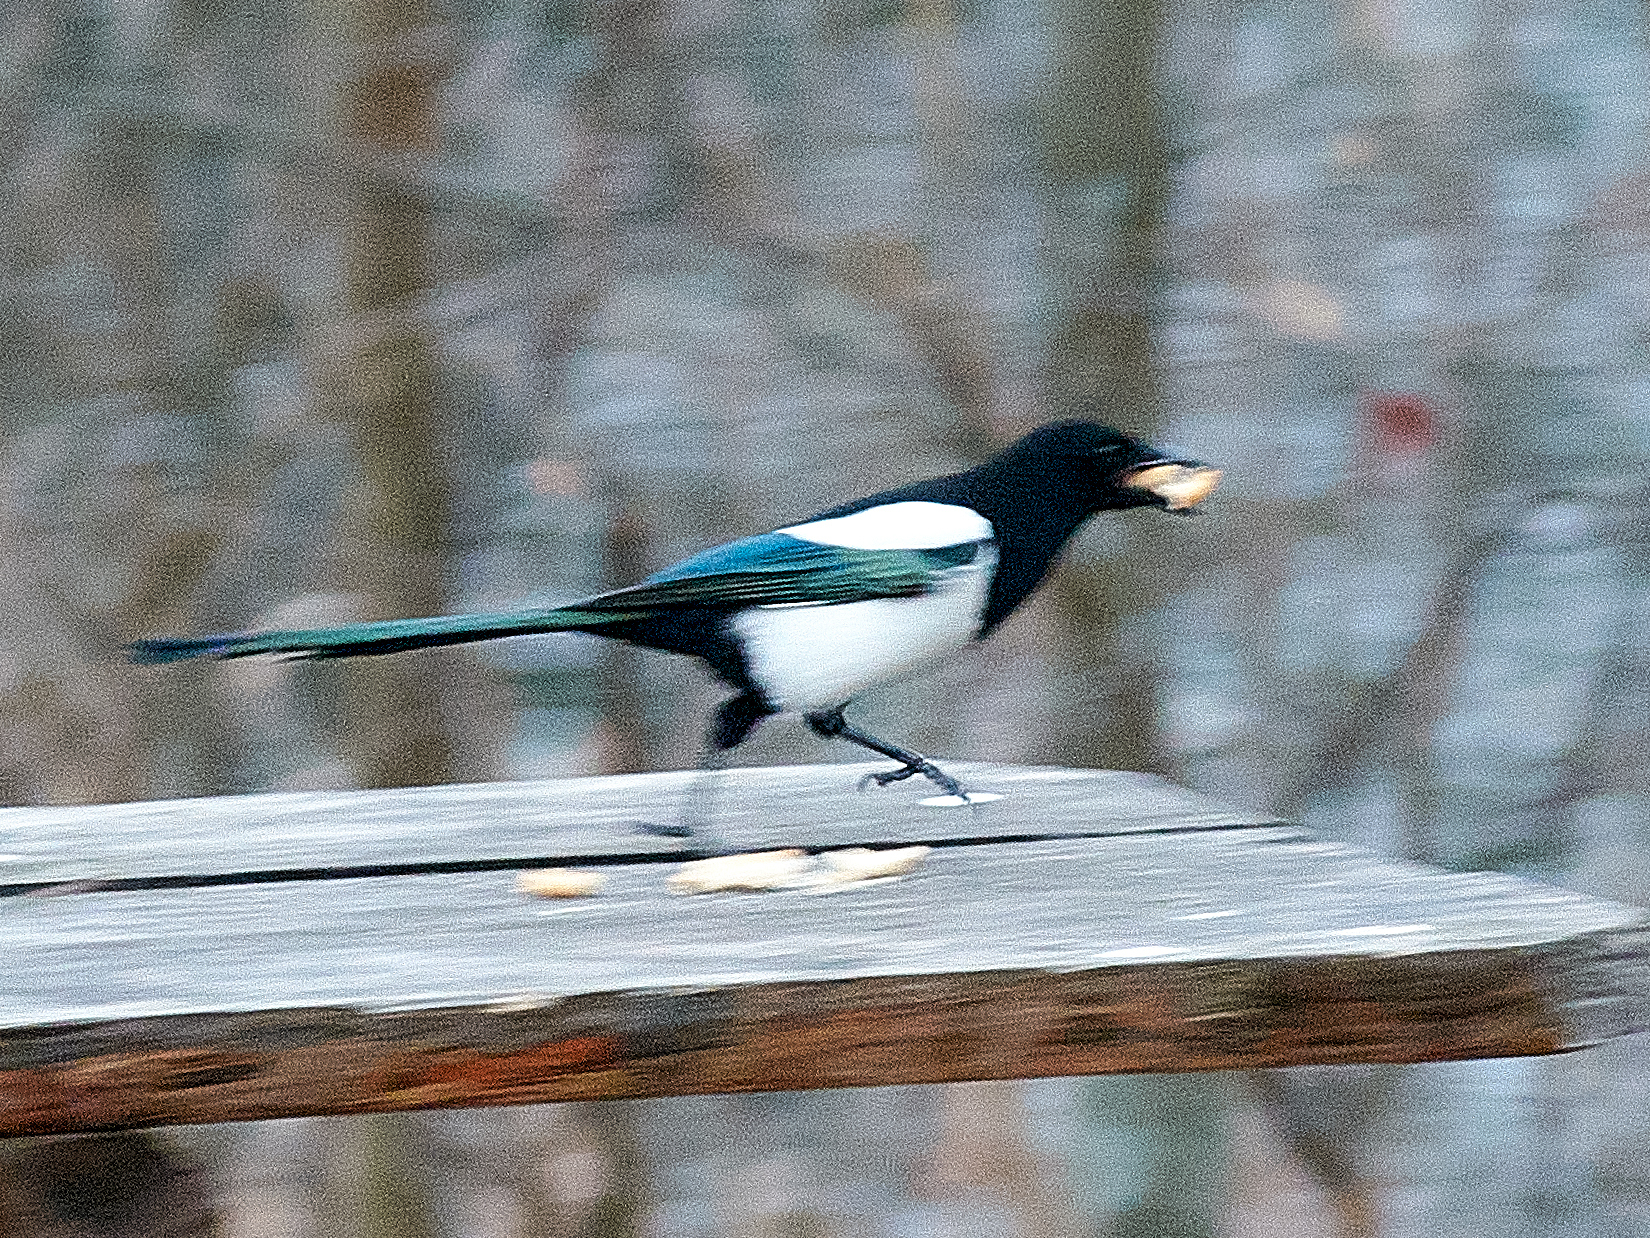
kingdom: Animalia
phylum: Chordata
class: Aves
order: Passeriformes
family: Corvidae
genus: Pica
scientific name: Pica pica
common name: Eurasian magpie
